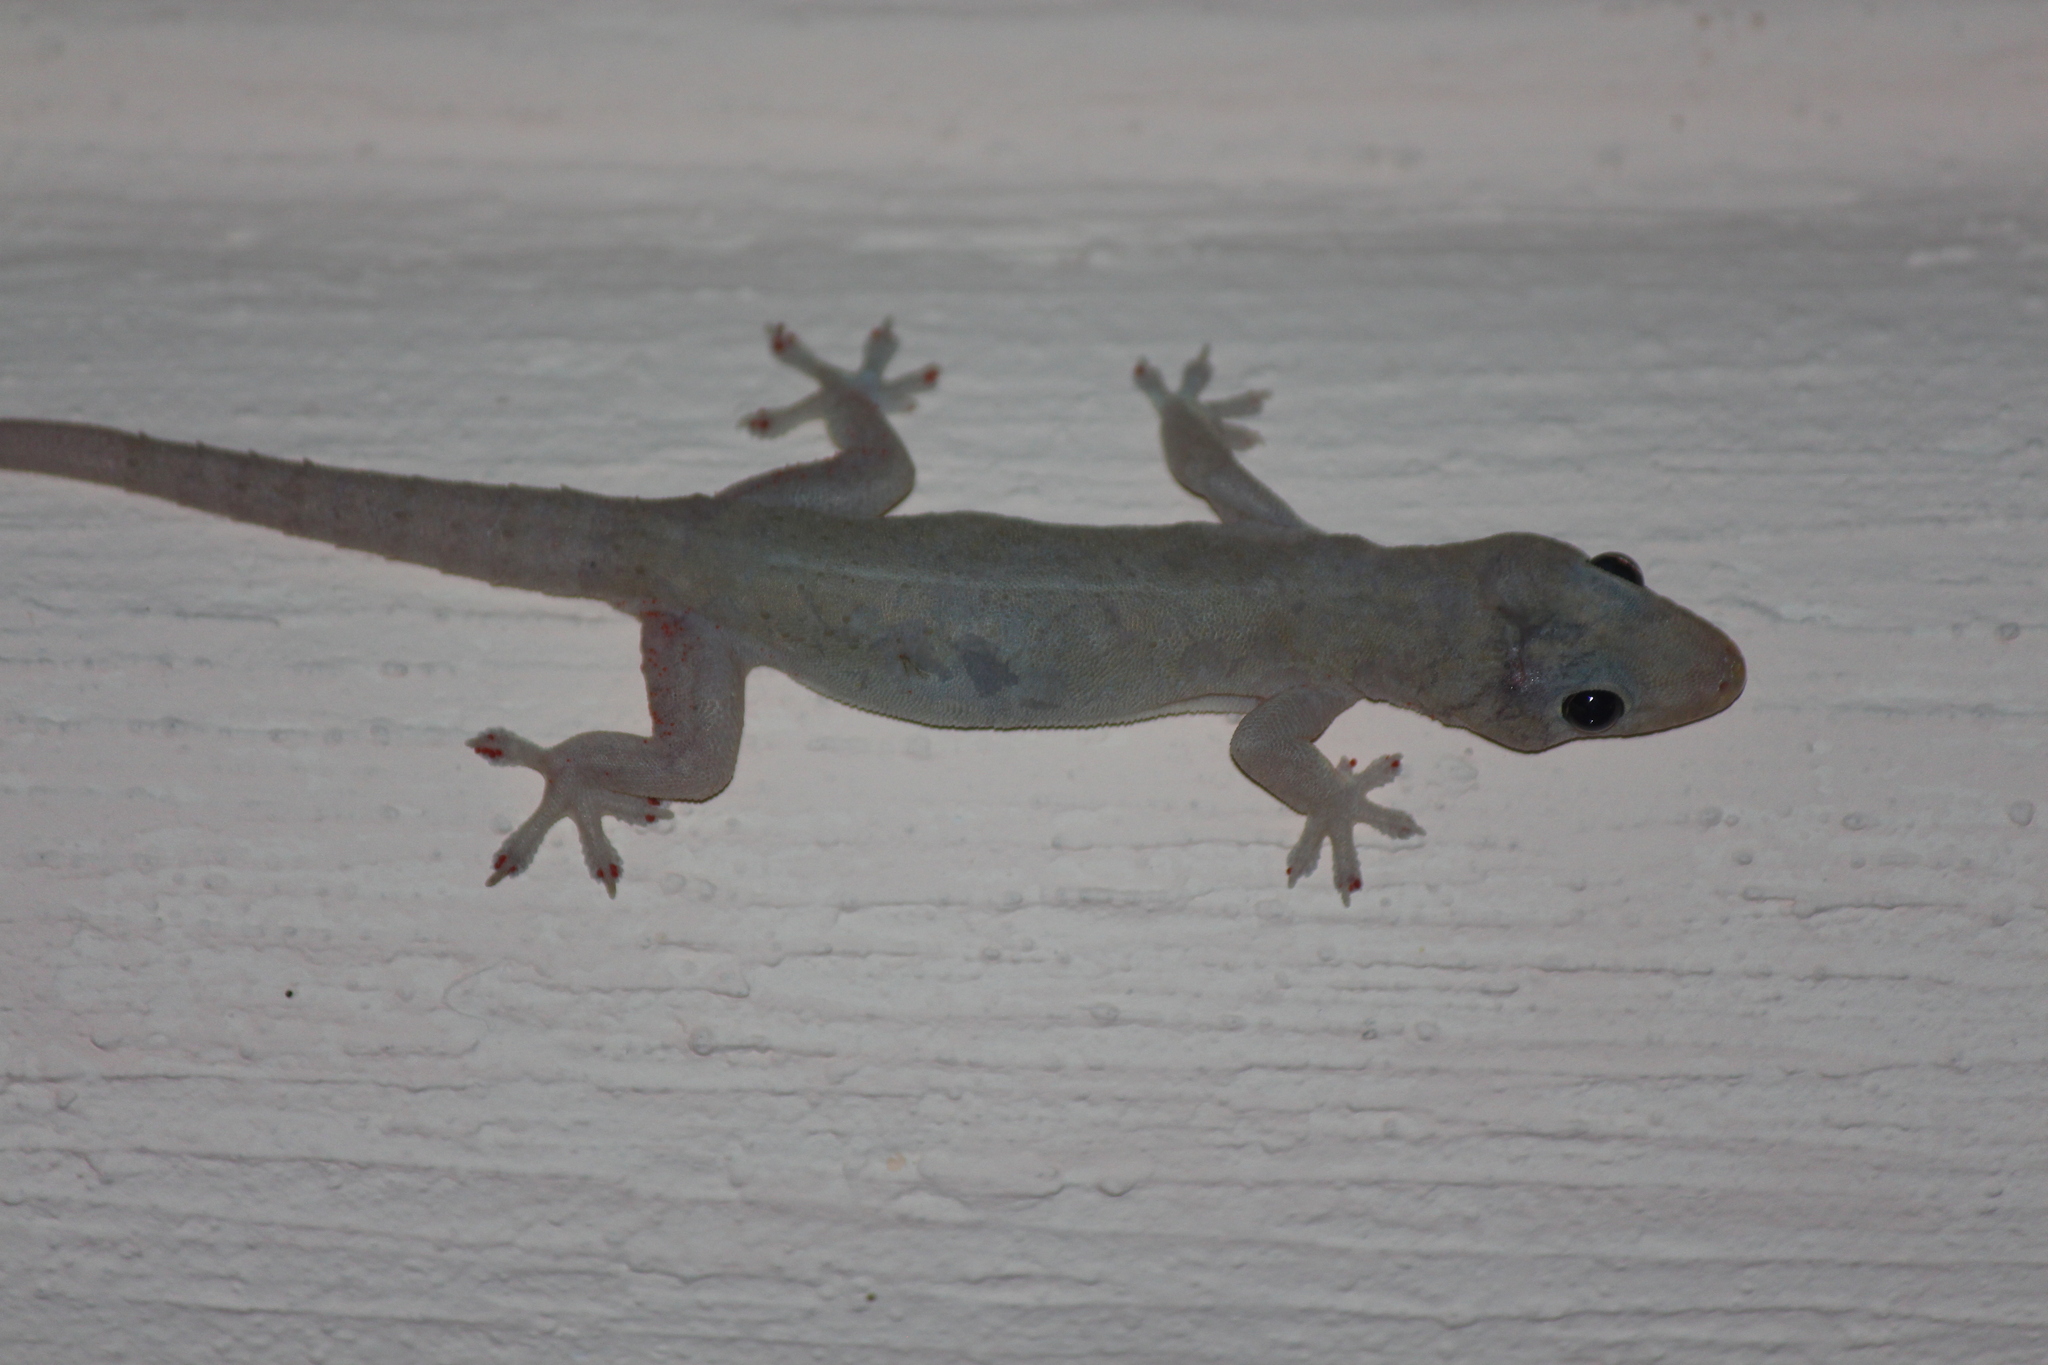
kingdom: Animalia
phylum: Chordata
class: Squamata
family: Gekkonidae
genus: Hemidactylus
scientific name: Hemidactylus frenatus
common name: Common house gecko
